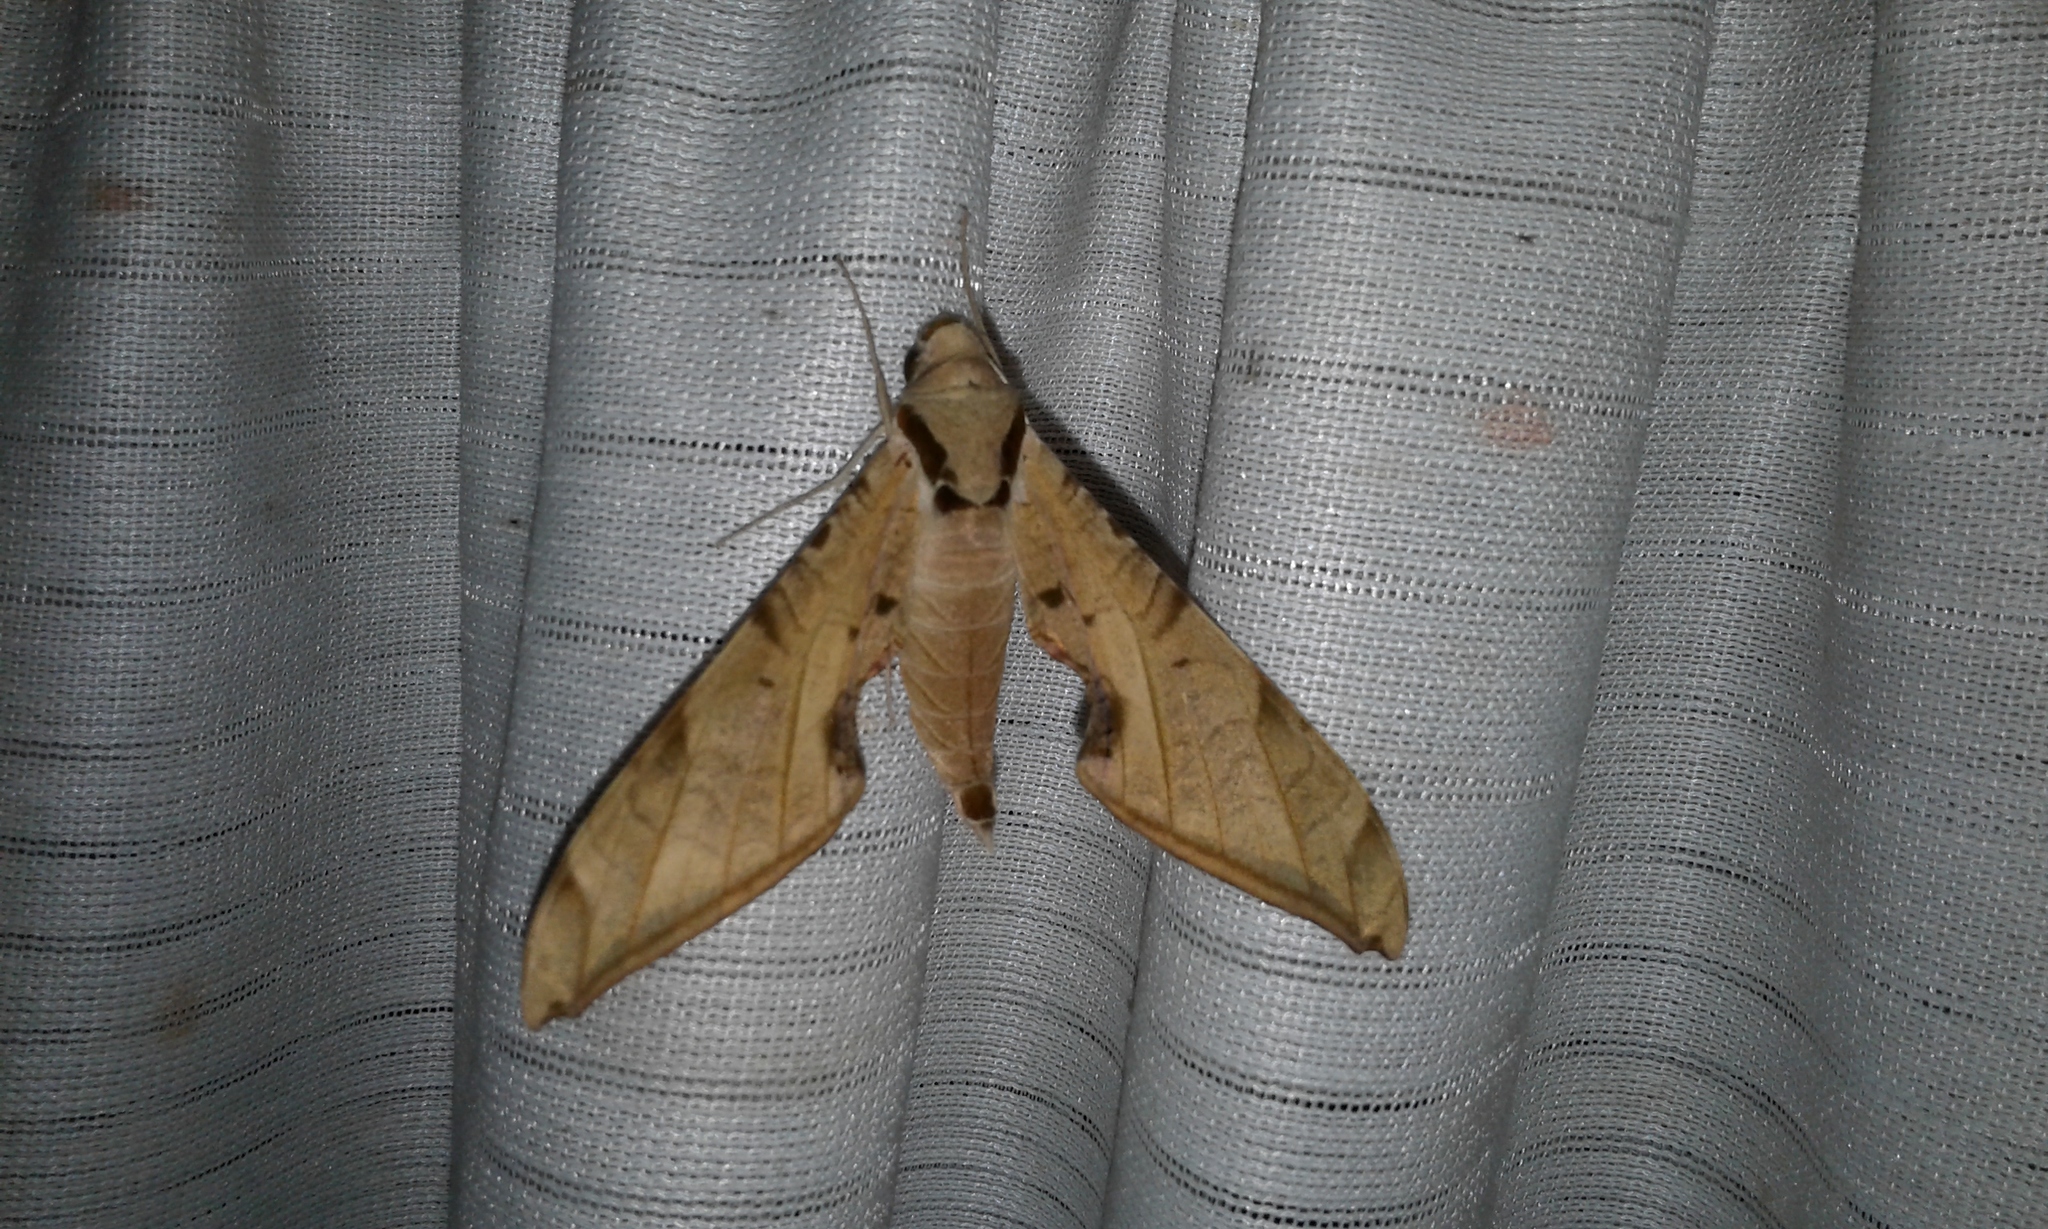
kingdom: Animalia
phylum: Arthropoda
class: Insecta
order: Lepidoptera
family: Sphingidae
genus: Protambulyx
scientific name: Protambulyx strigilis
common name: Streaked sphinx
